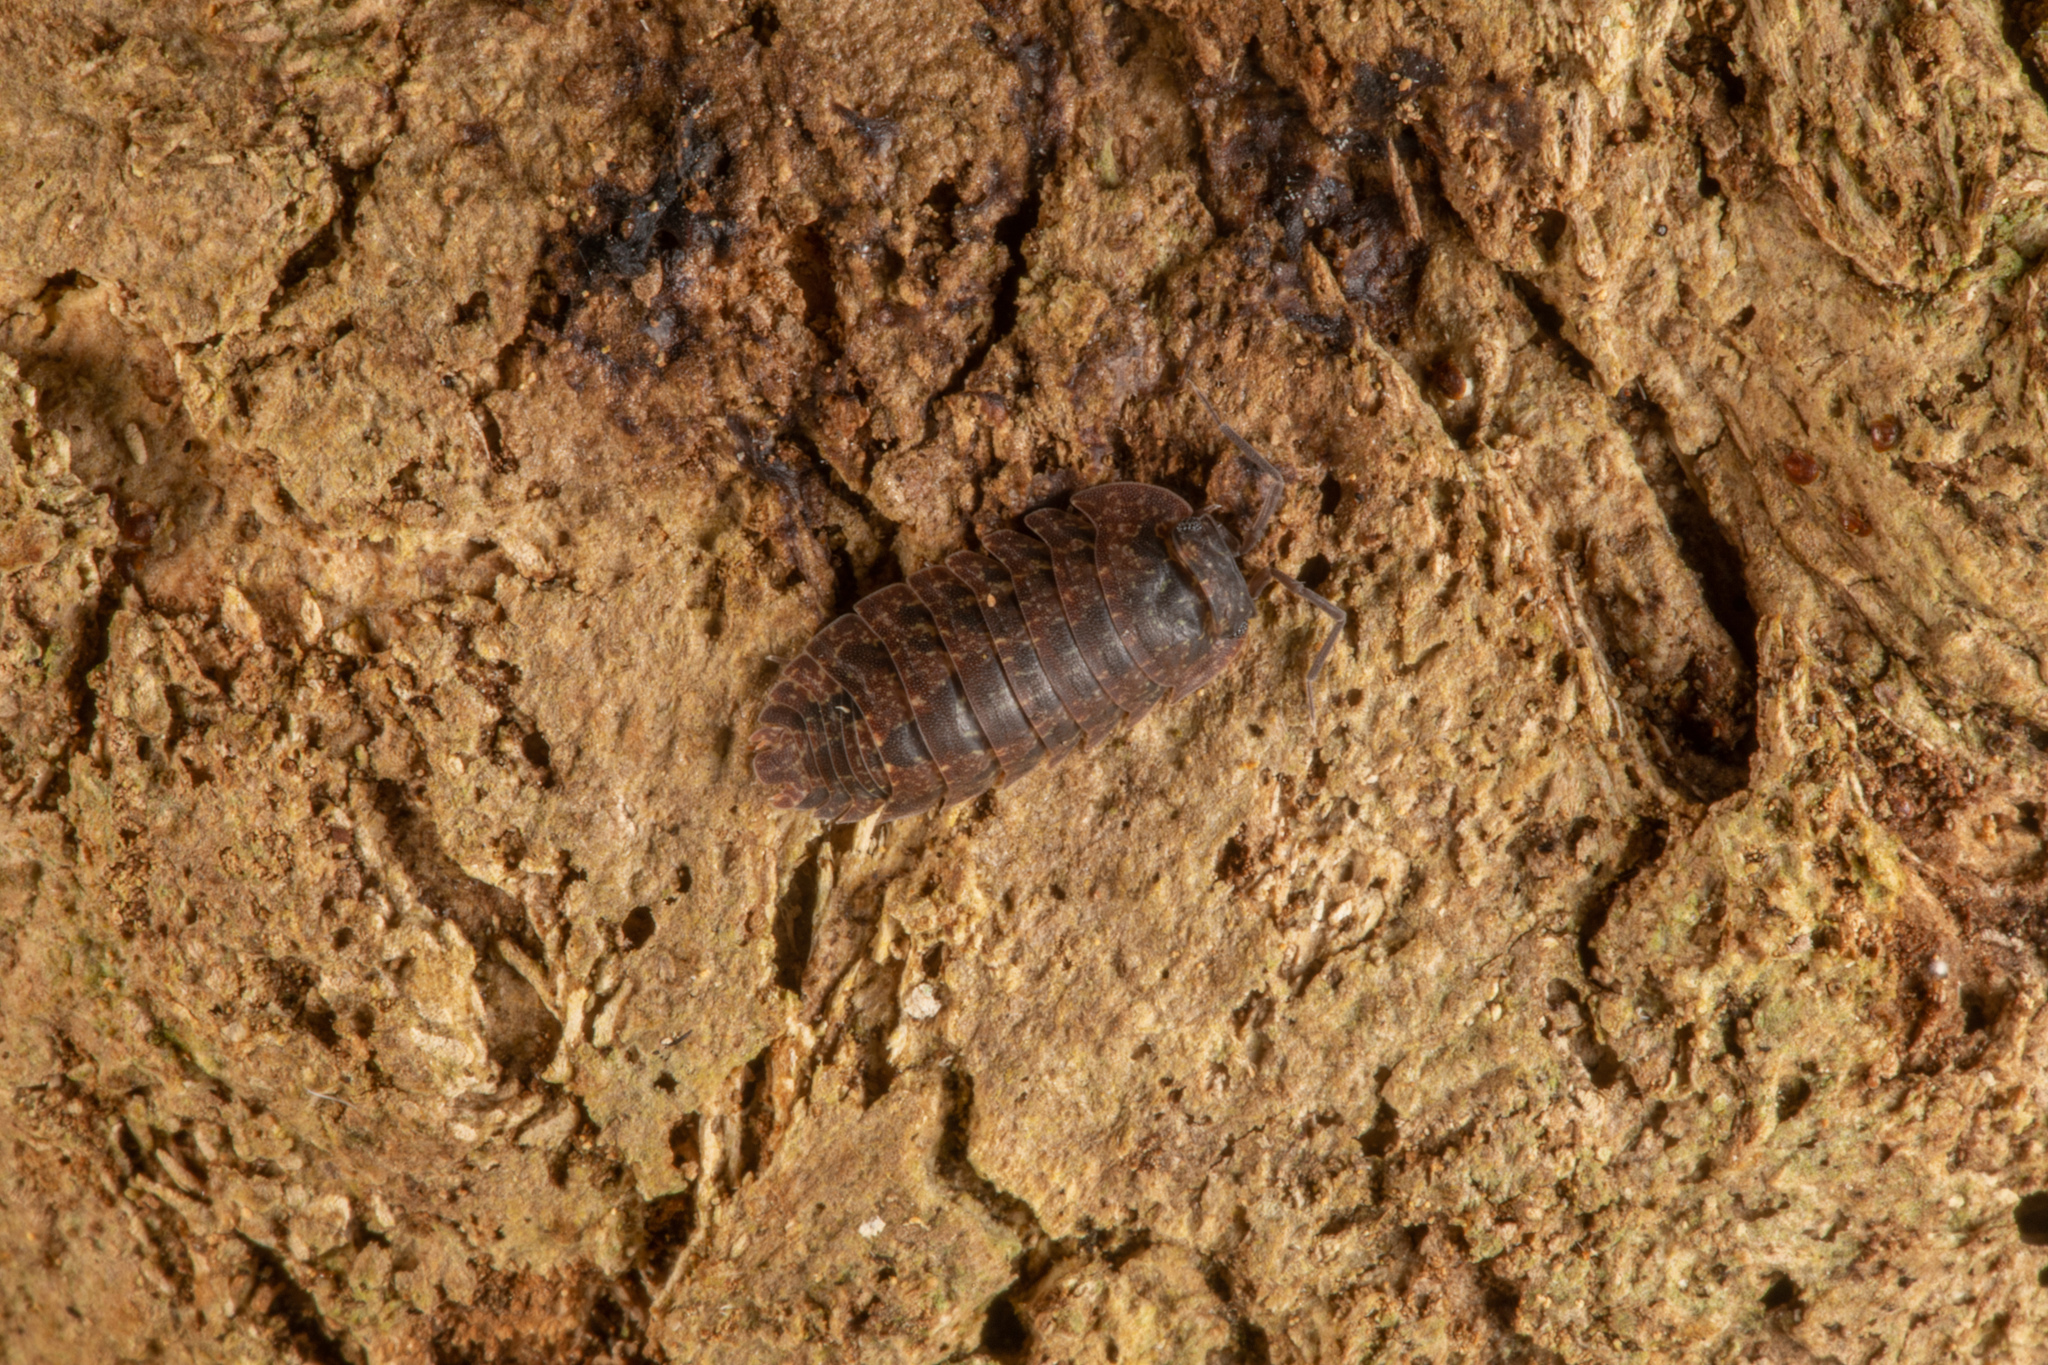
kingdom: Animalia
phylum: Arthropoda
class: Malacostraca
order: Isopoda
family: Armadillidae
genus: Cubaris
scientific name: Cubaris tarangensis
